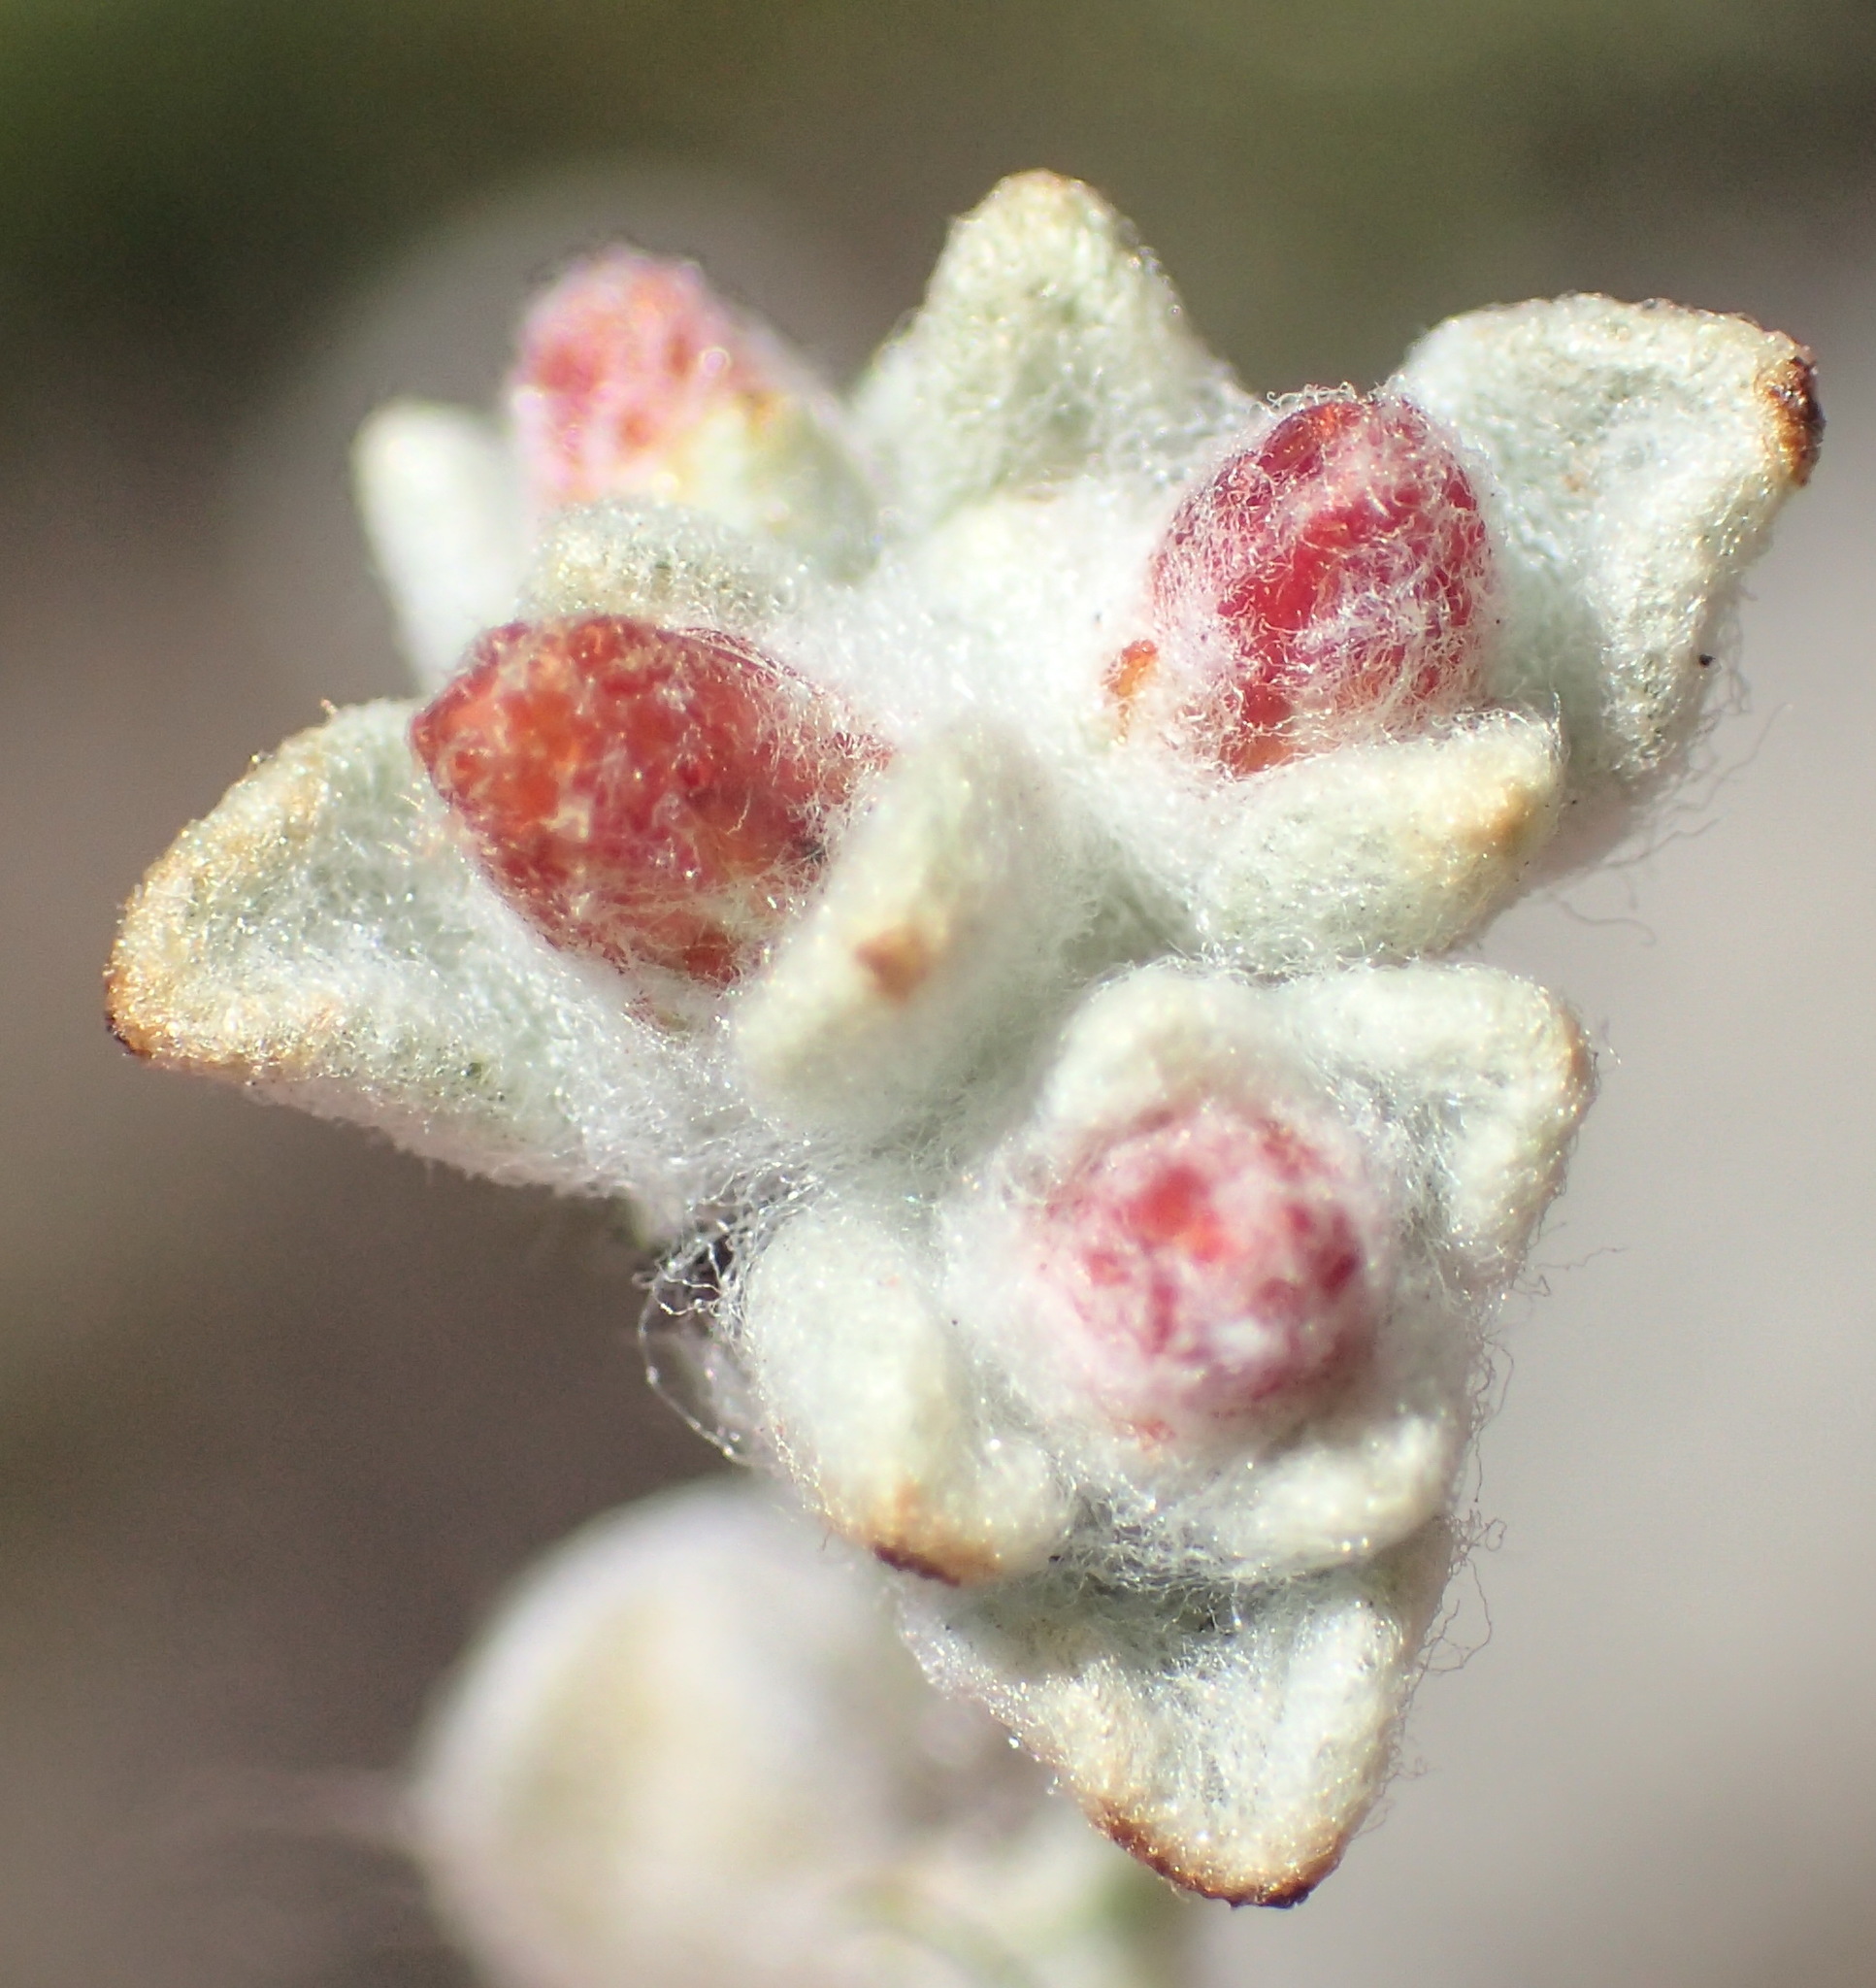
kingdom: Plantae
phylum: Tracheophyta
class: Magnoliopsida
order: Asterales
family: Asteraceae
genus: Helichrysum
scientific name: Helichrysum zwartbergense
